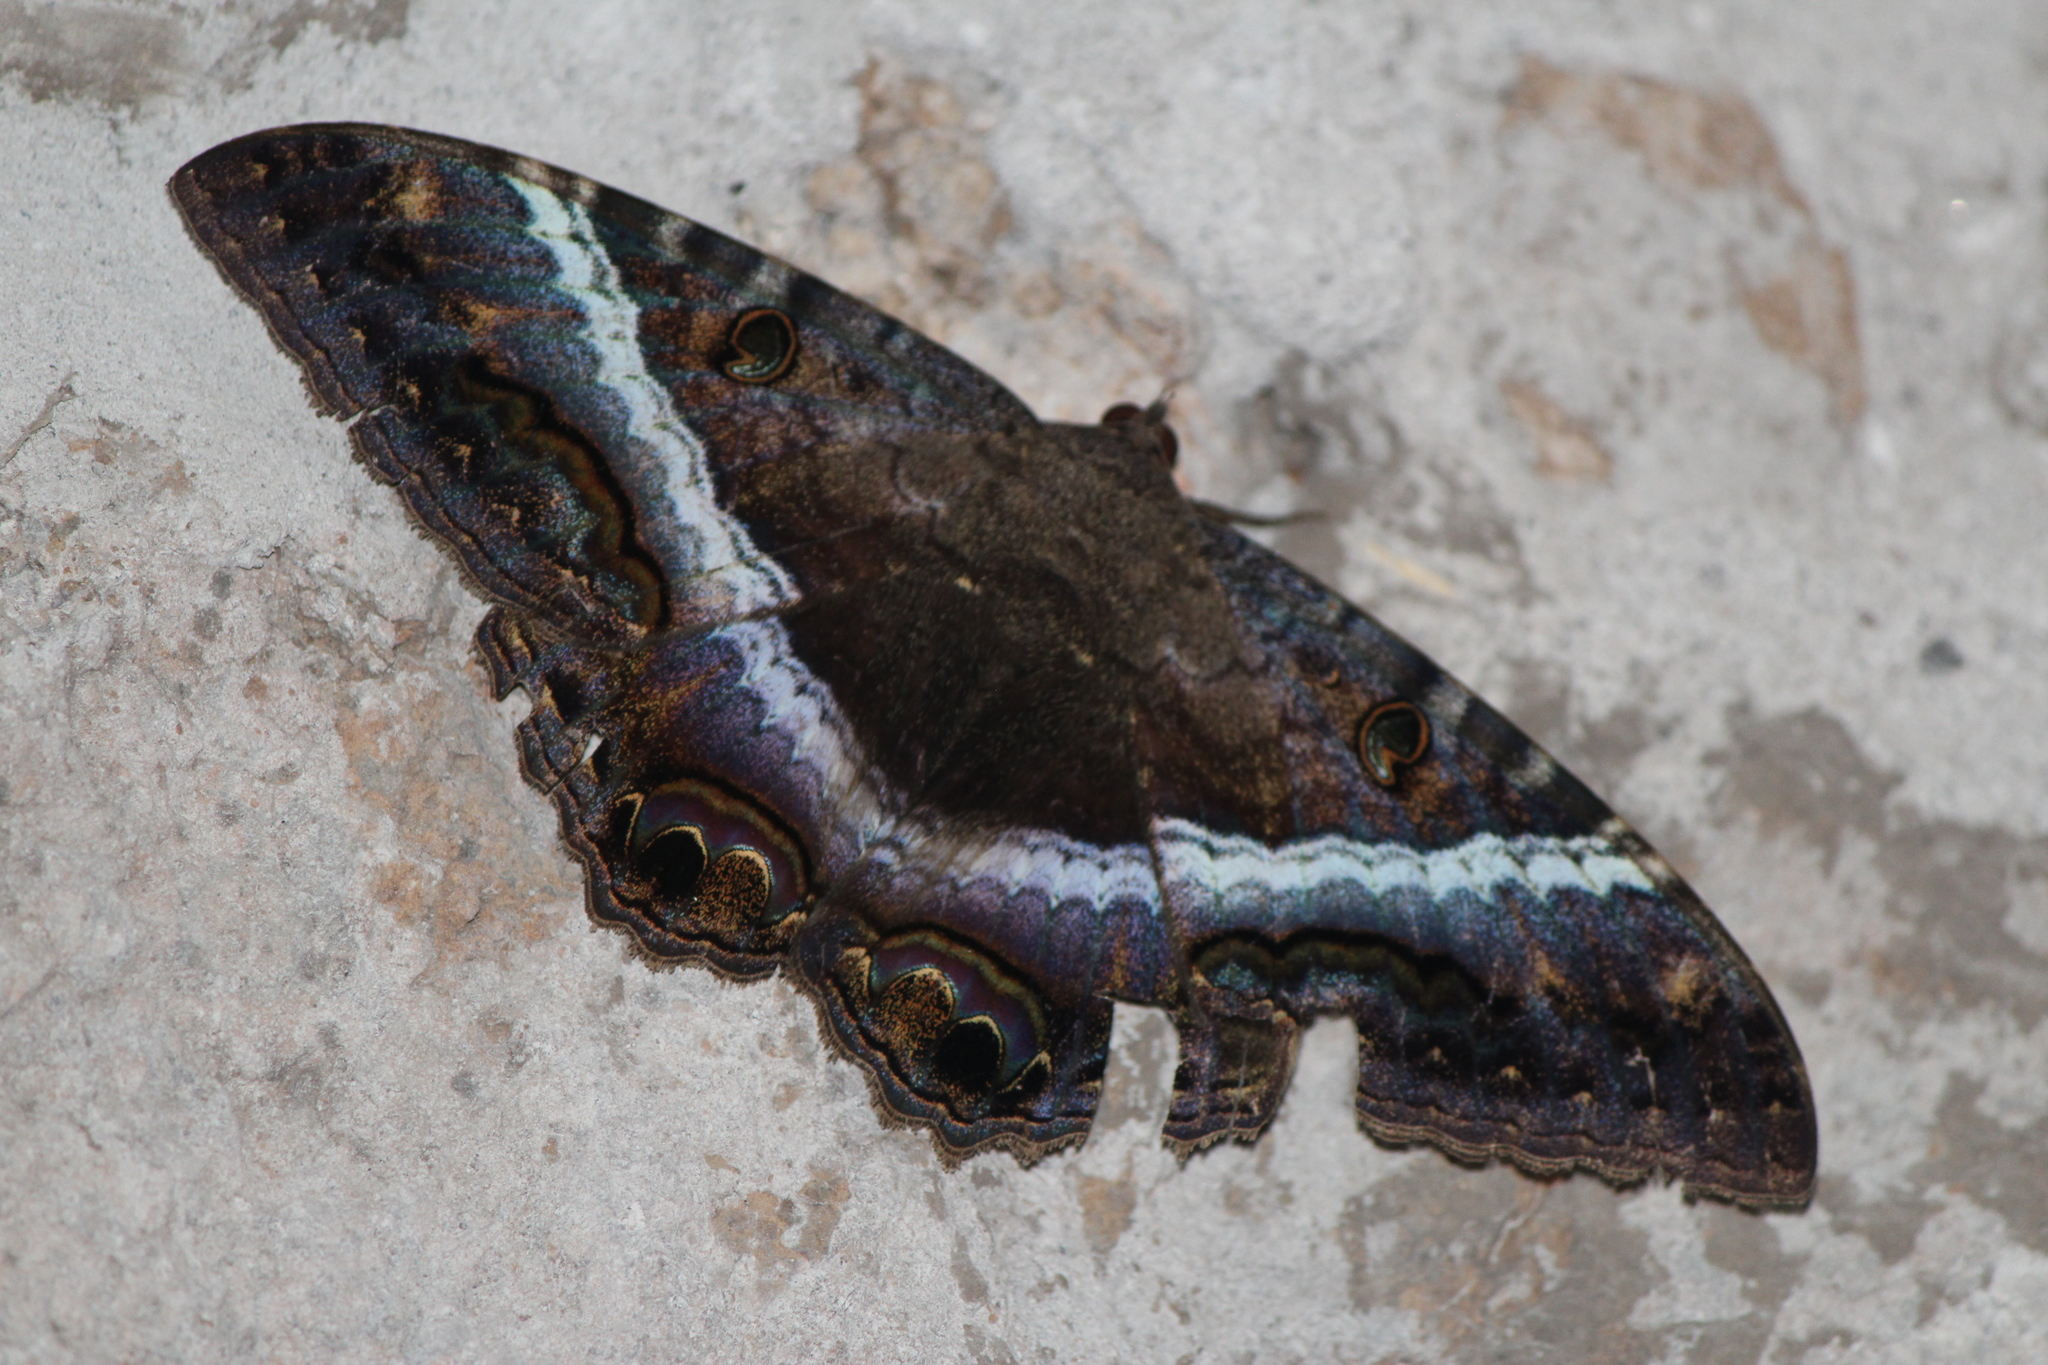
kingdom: Animalia
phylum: Arthropoda
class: Insecta
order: Lepidoptera
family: Erebidae
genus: Ascalapha
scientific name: Ascalapha odorata
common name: Black witch
